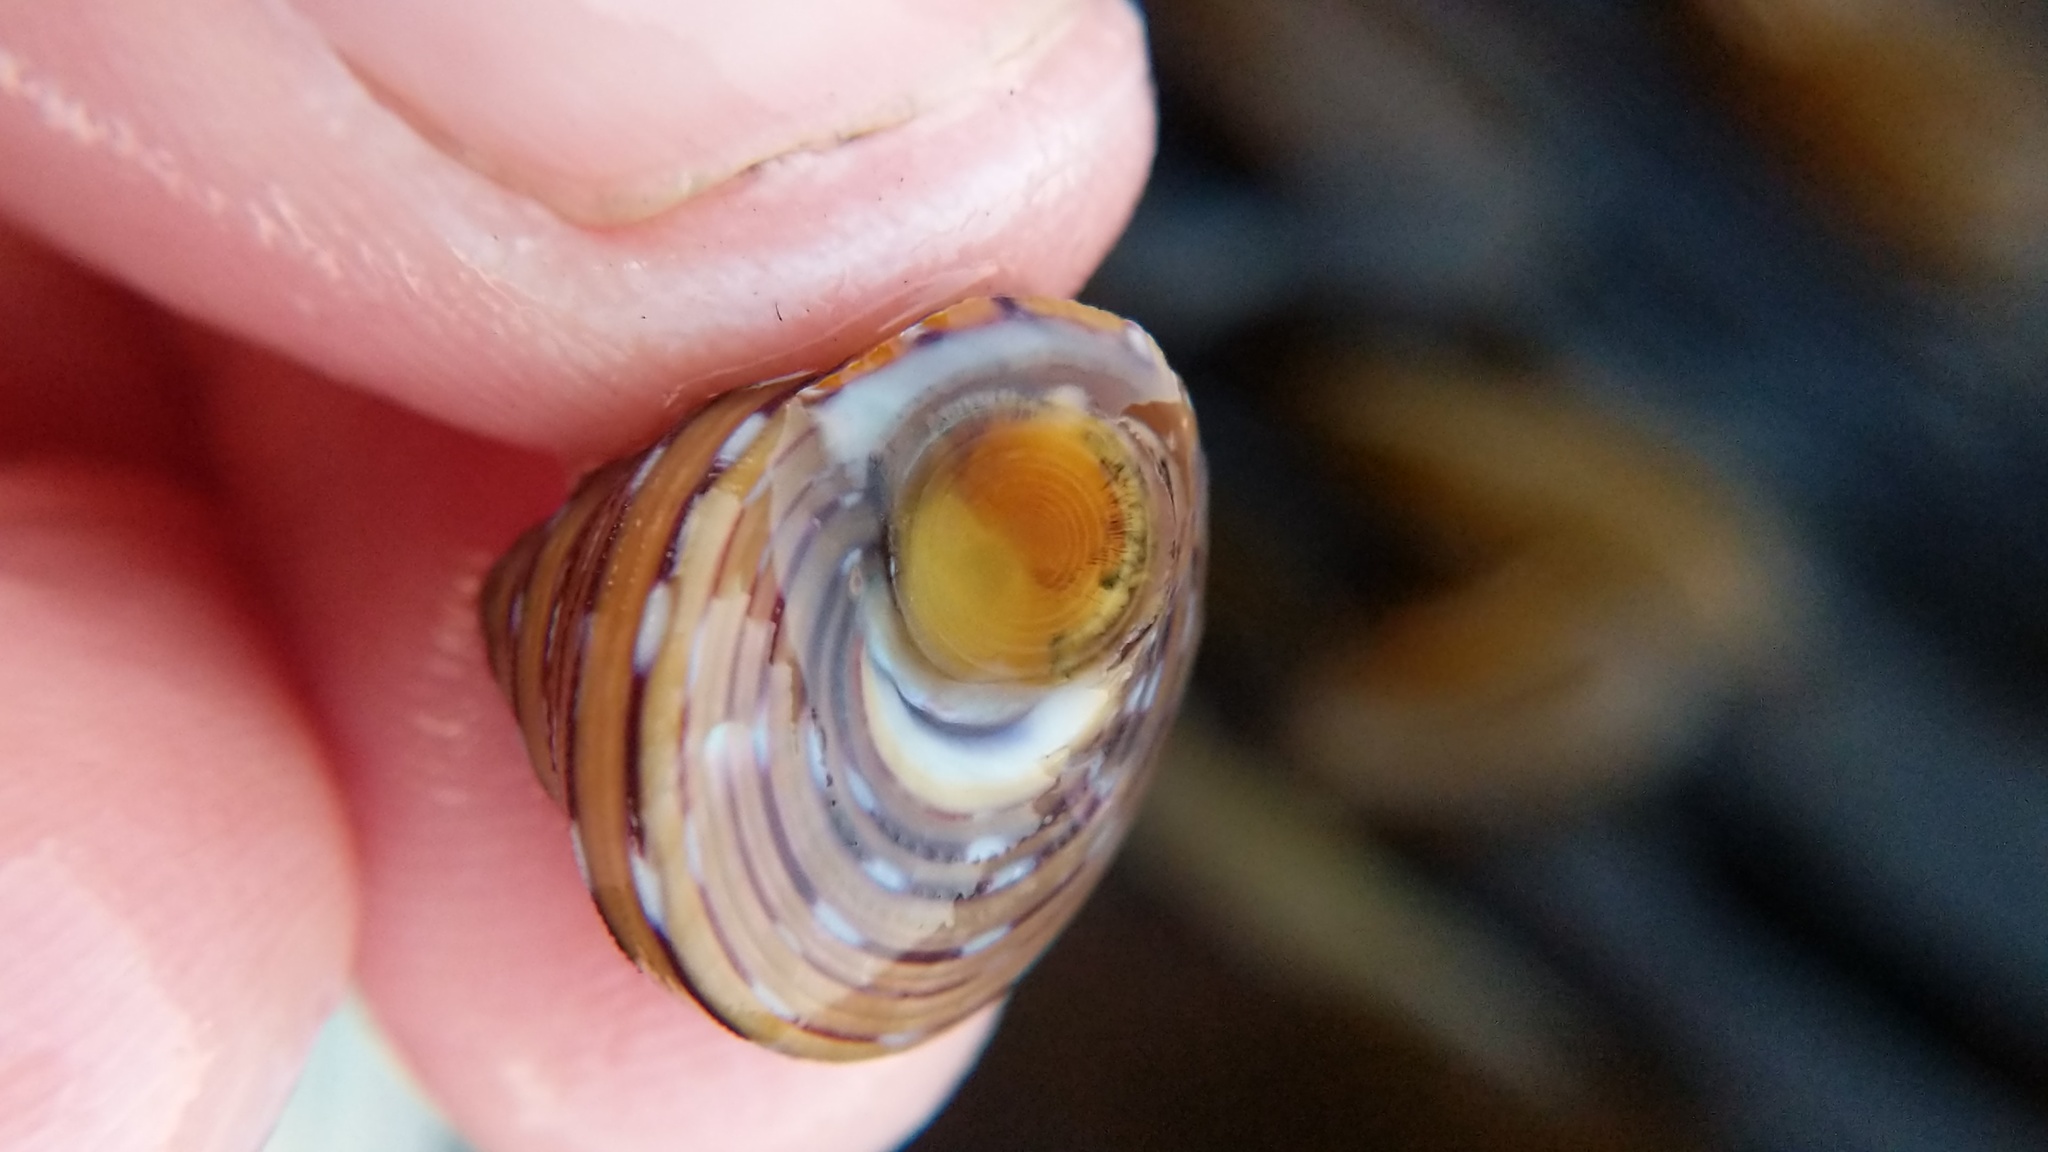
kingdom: Animalia
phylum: Mollusca
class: Gastropoda
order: Trochida
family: Calliostomatidae
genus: Calliostoma
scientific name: Calliostoma tricolor
